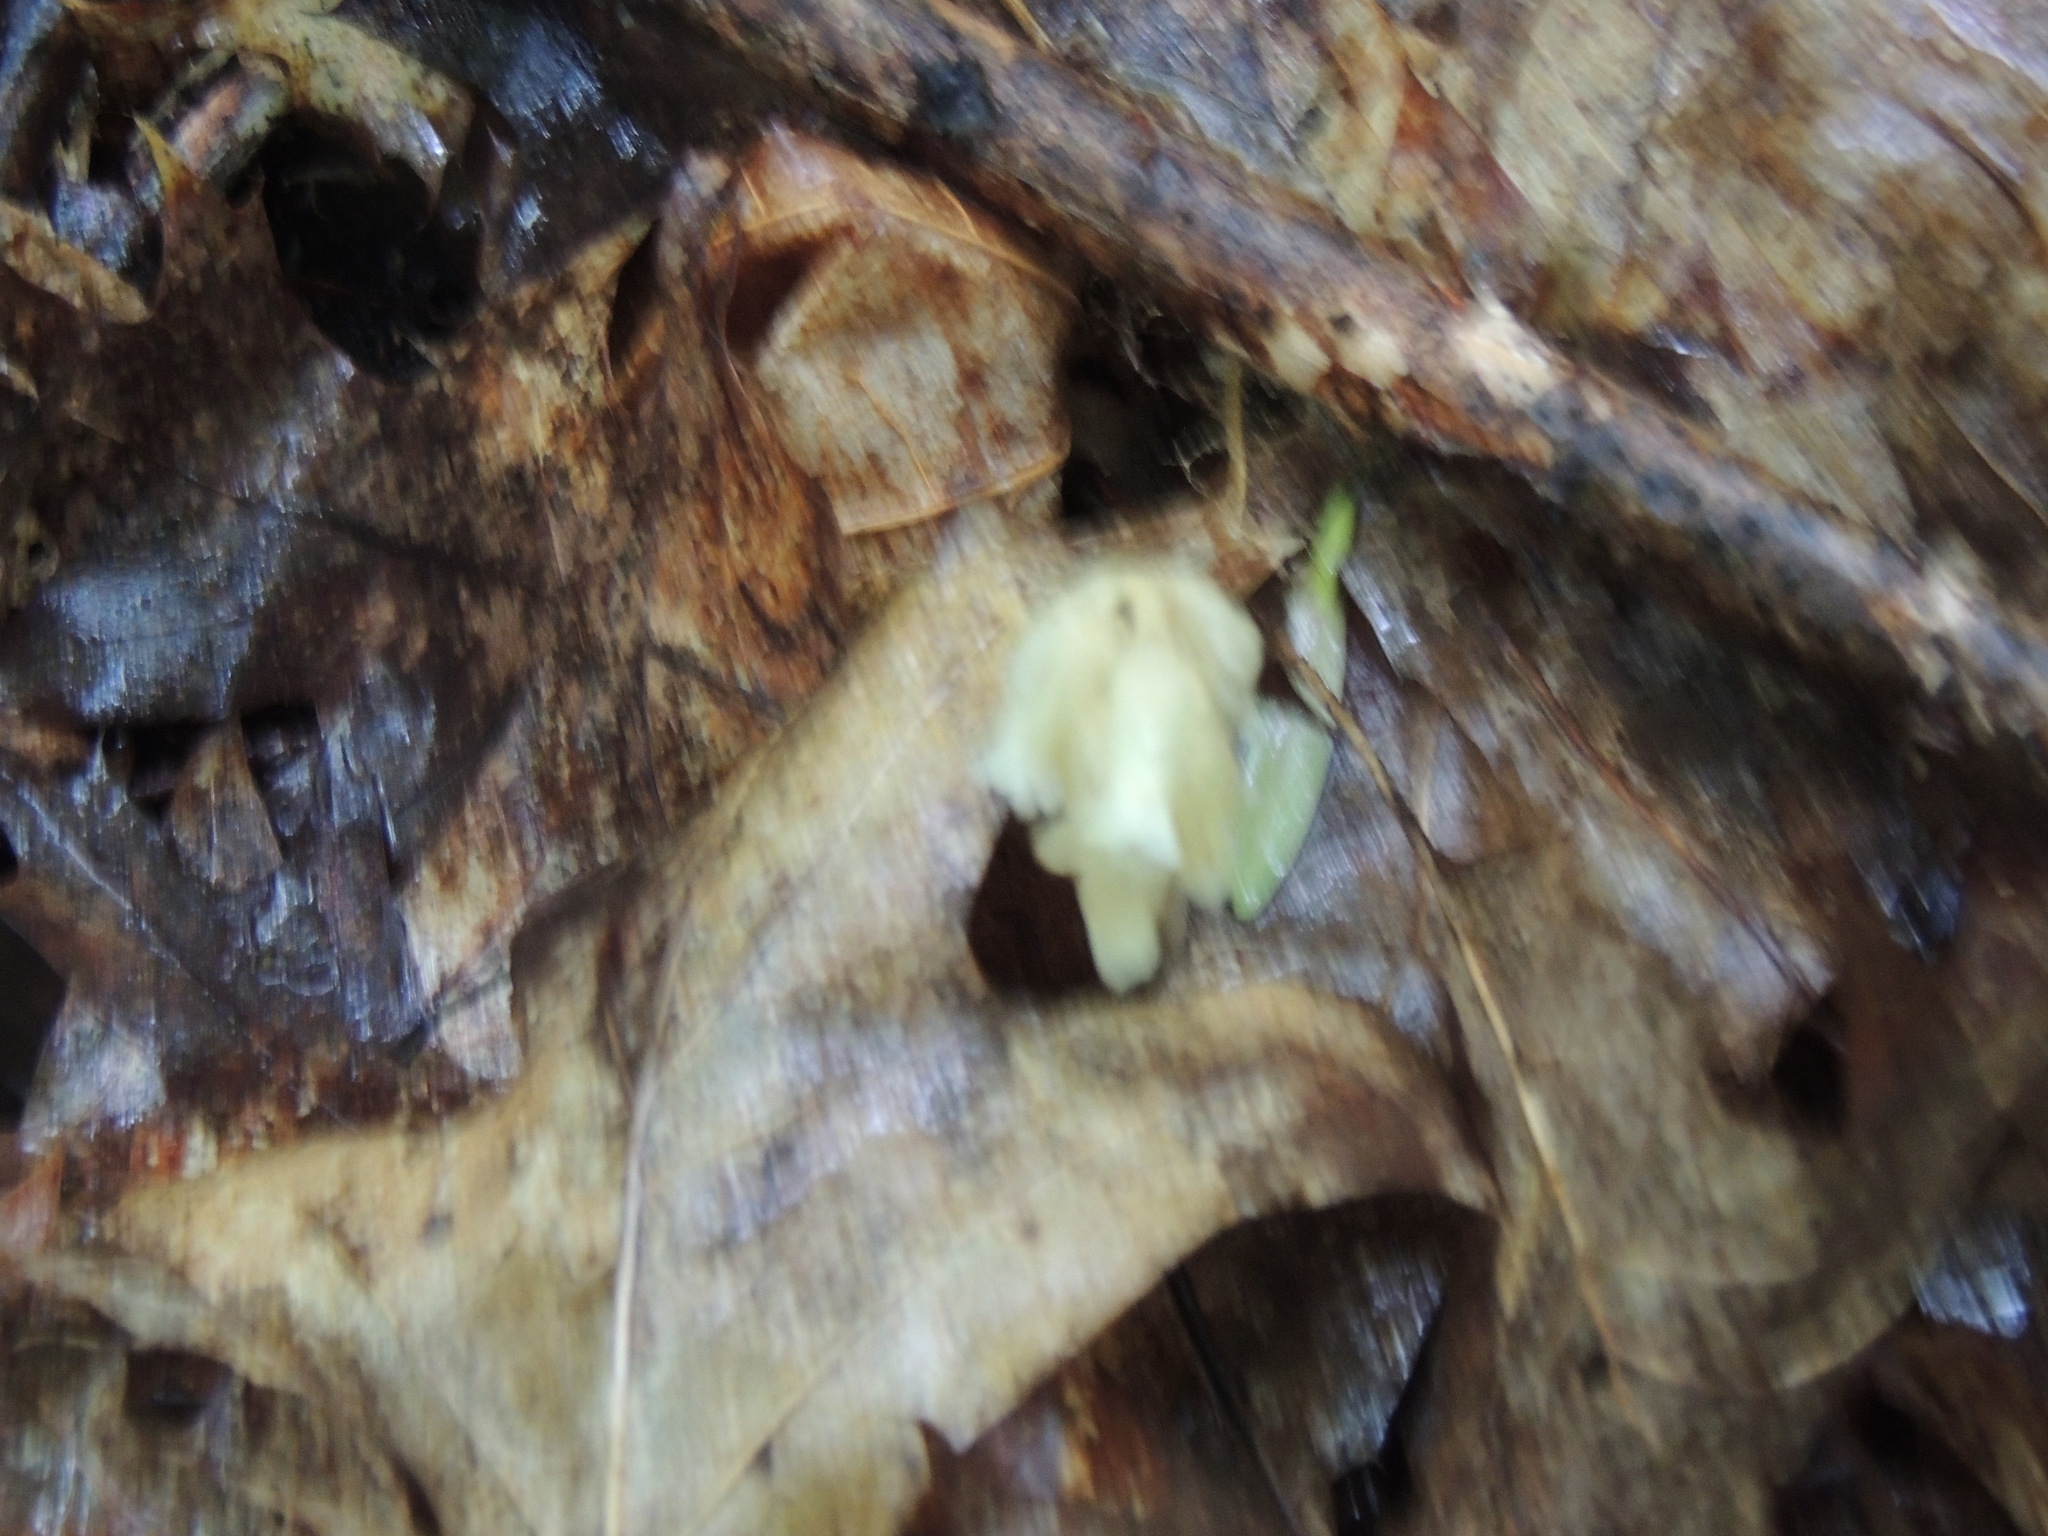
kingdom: Plantae
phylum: Tracheophyta
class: Magnoliopsida
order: Ericales
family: Ericaceae
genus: Hypopitys
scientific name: Hypopitys monotropa
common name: Yellow bird's-nest
